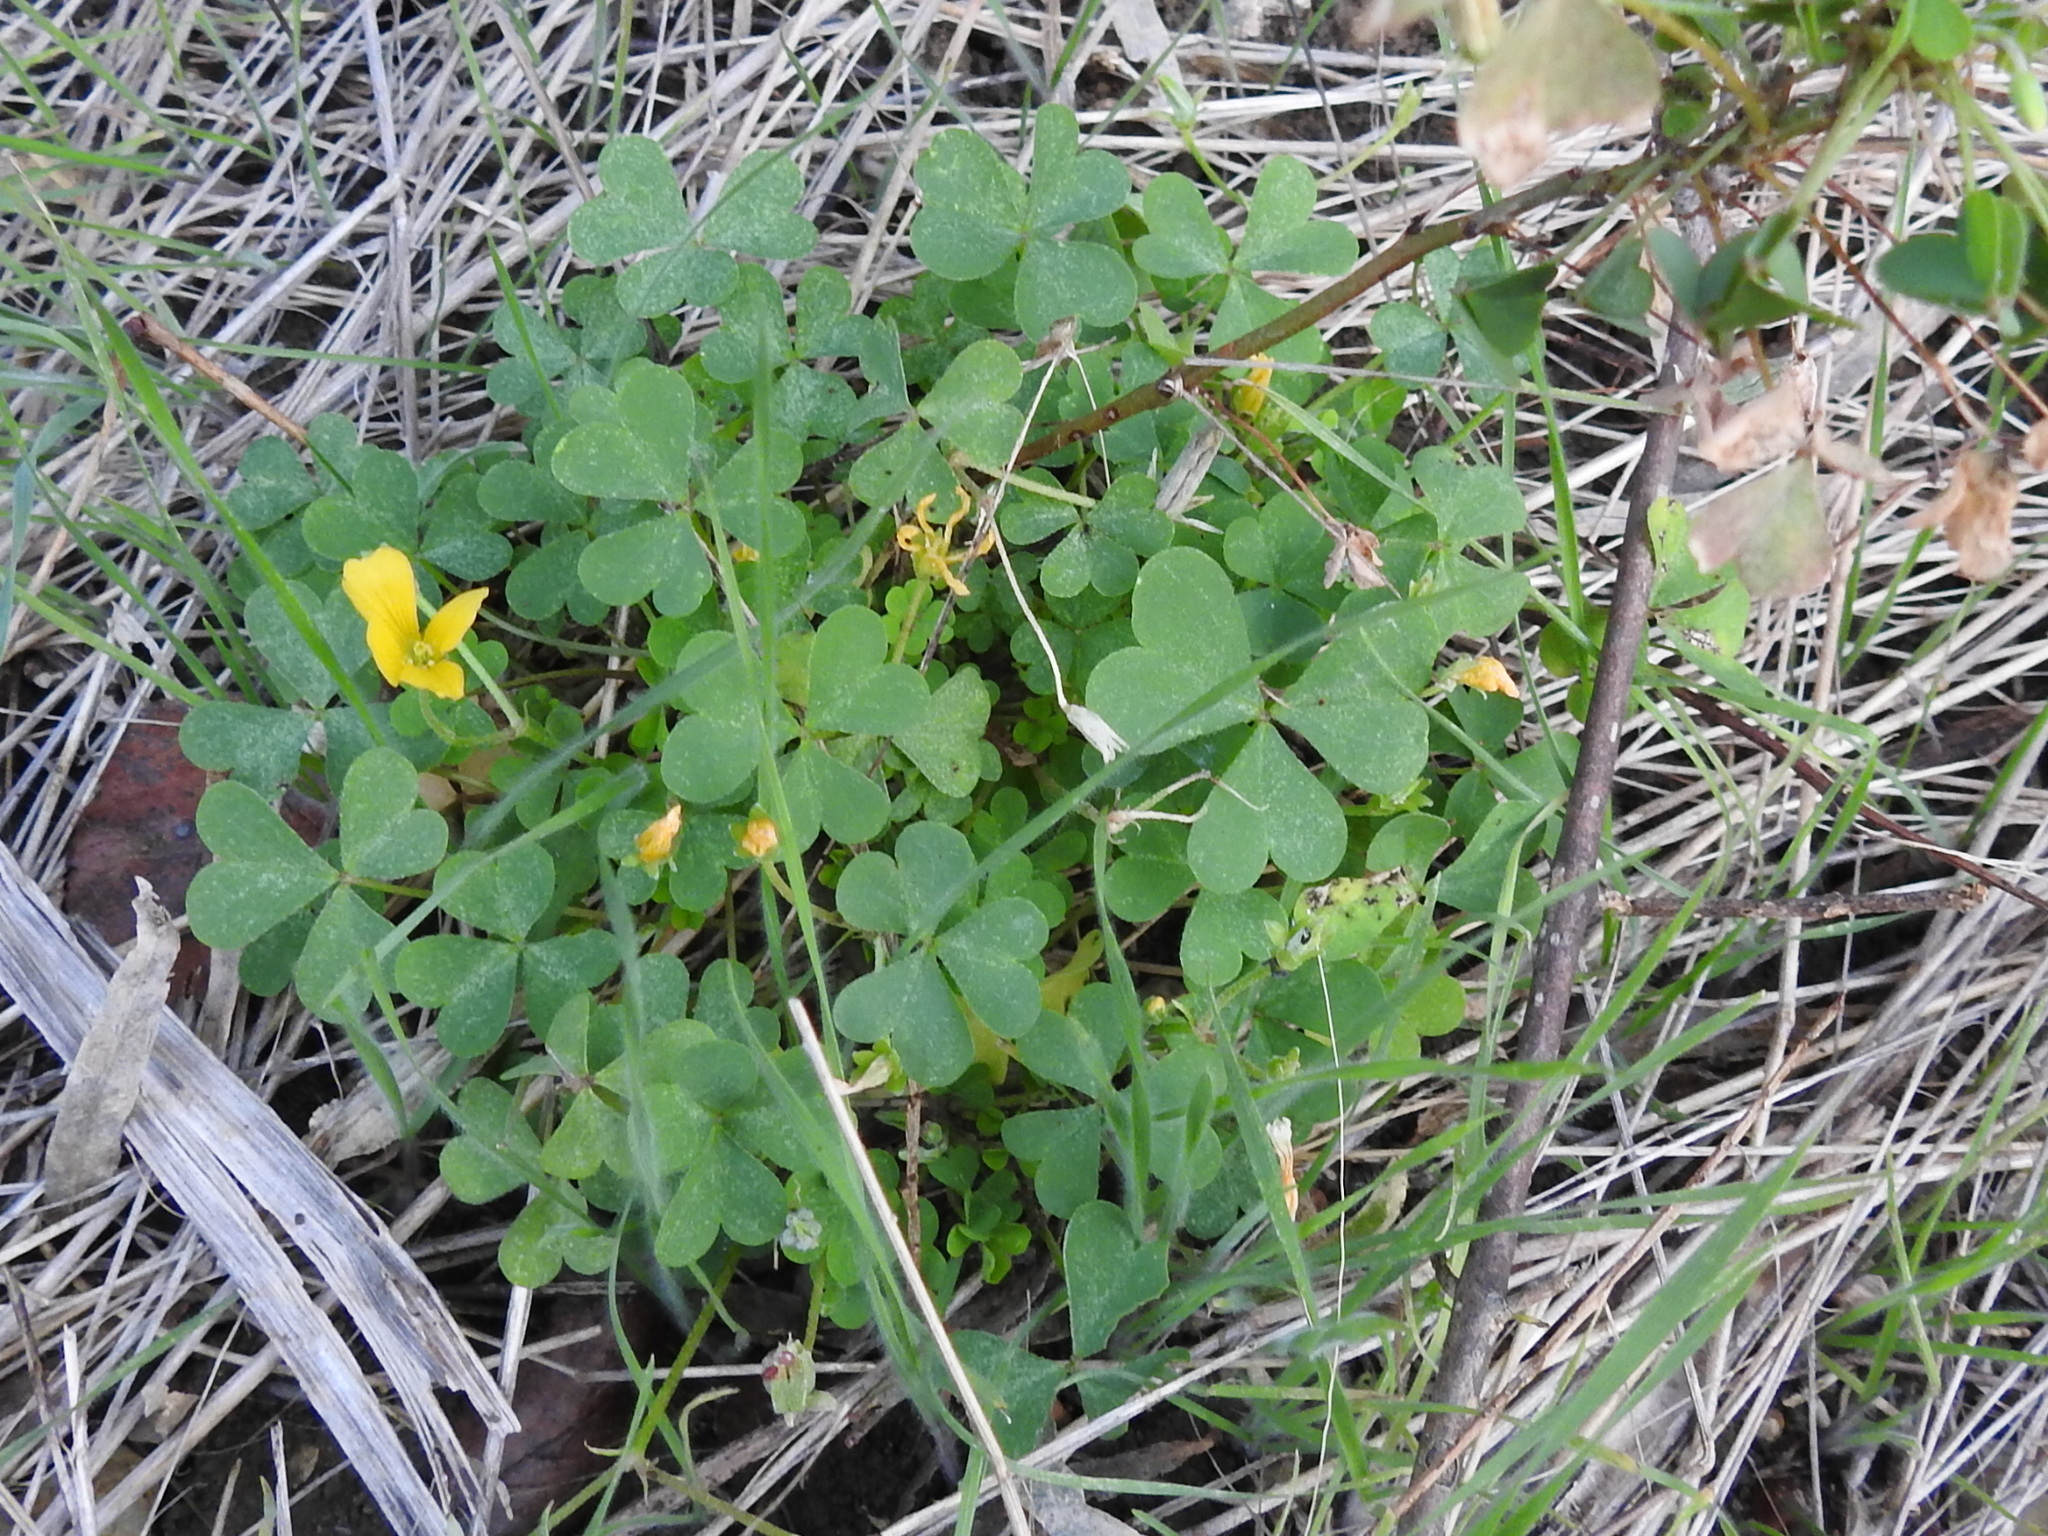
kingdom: Plantae
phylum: Tracheophyta
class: Magnoliopsida
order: Oxalidales
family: Oxalidaceae
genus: Oxalis
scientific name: Oxalis dillenii
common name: Sussex yellow-sorrel
